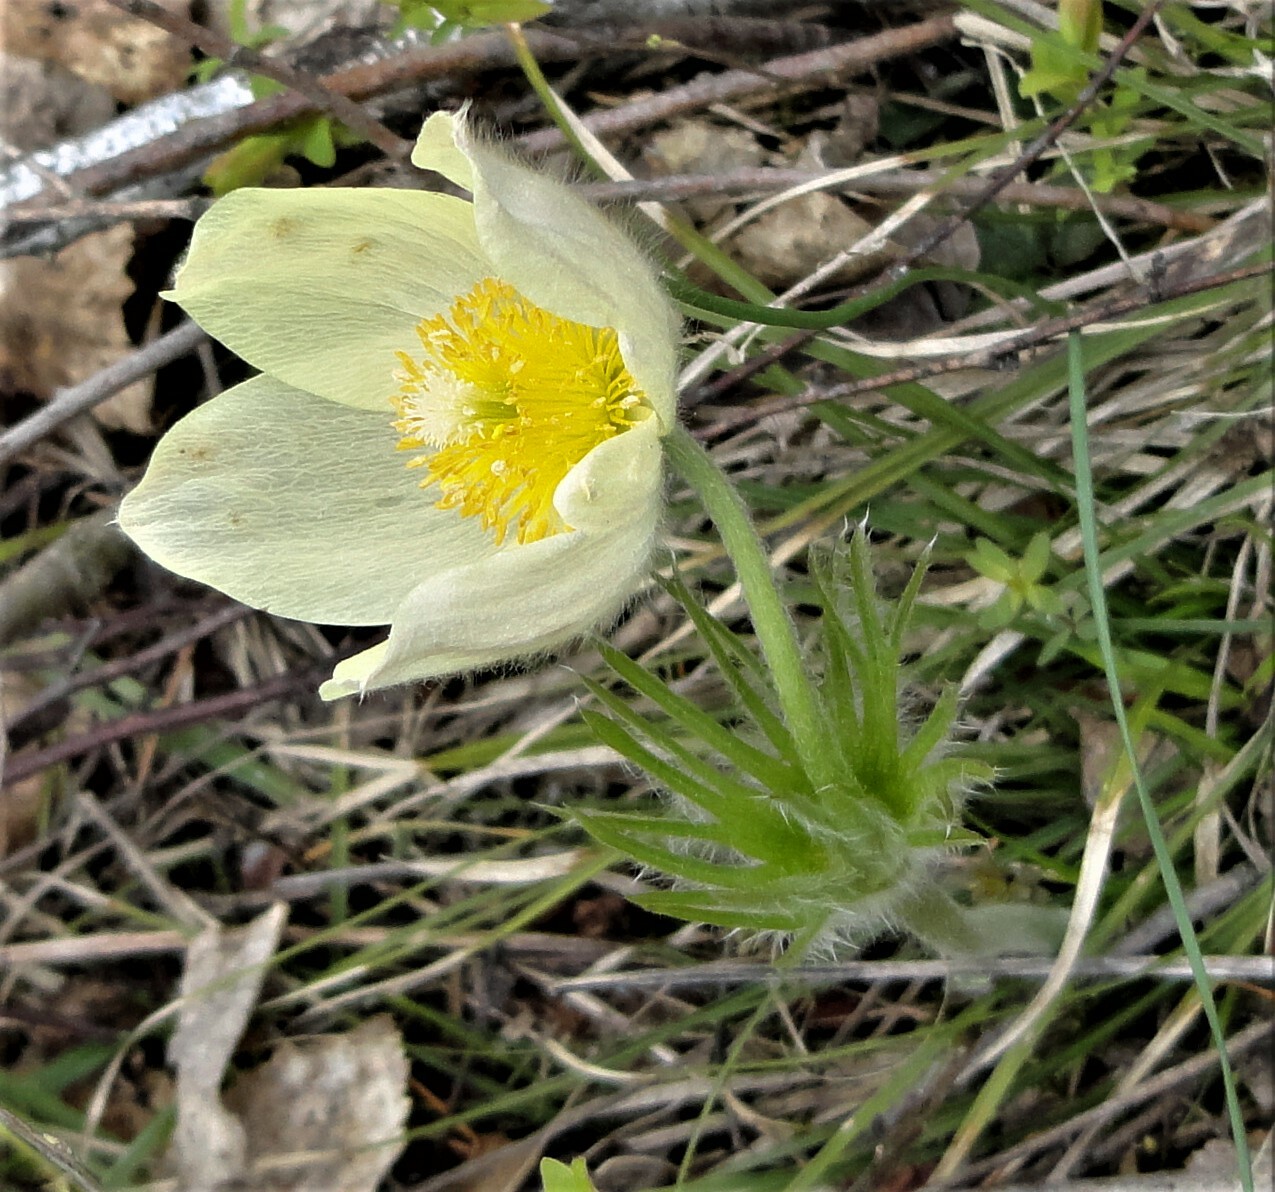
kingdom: Plantae
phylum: Tracheophyta
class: Magnoliopsida
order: Ranunculales
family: Ranunculaceae
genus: Pulsatilla
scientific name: Pulsatilla patens
